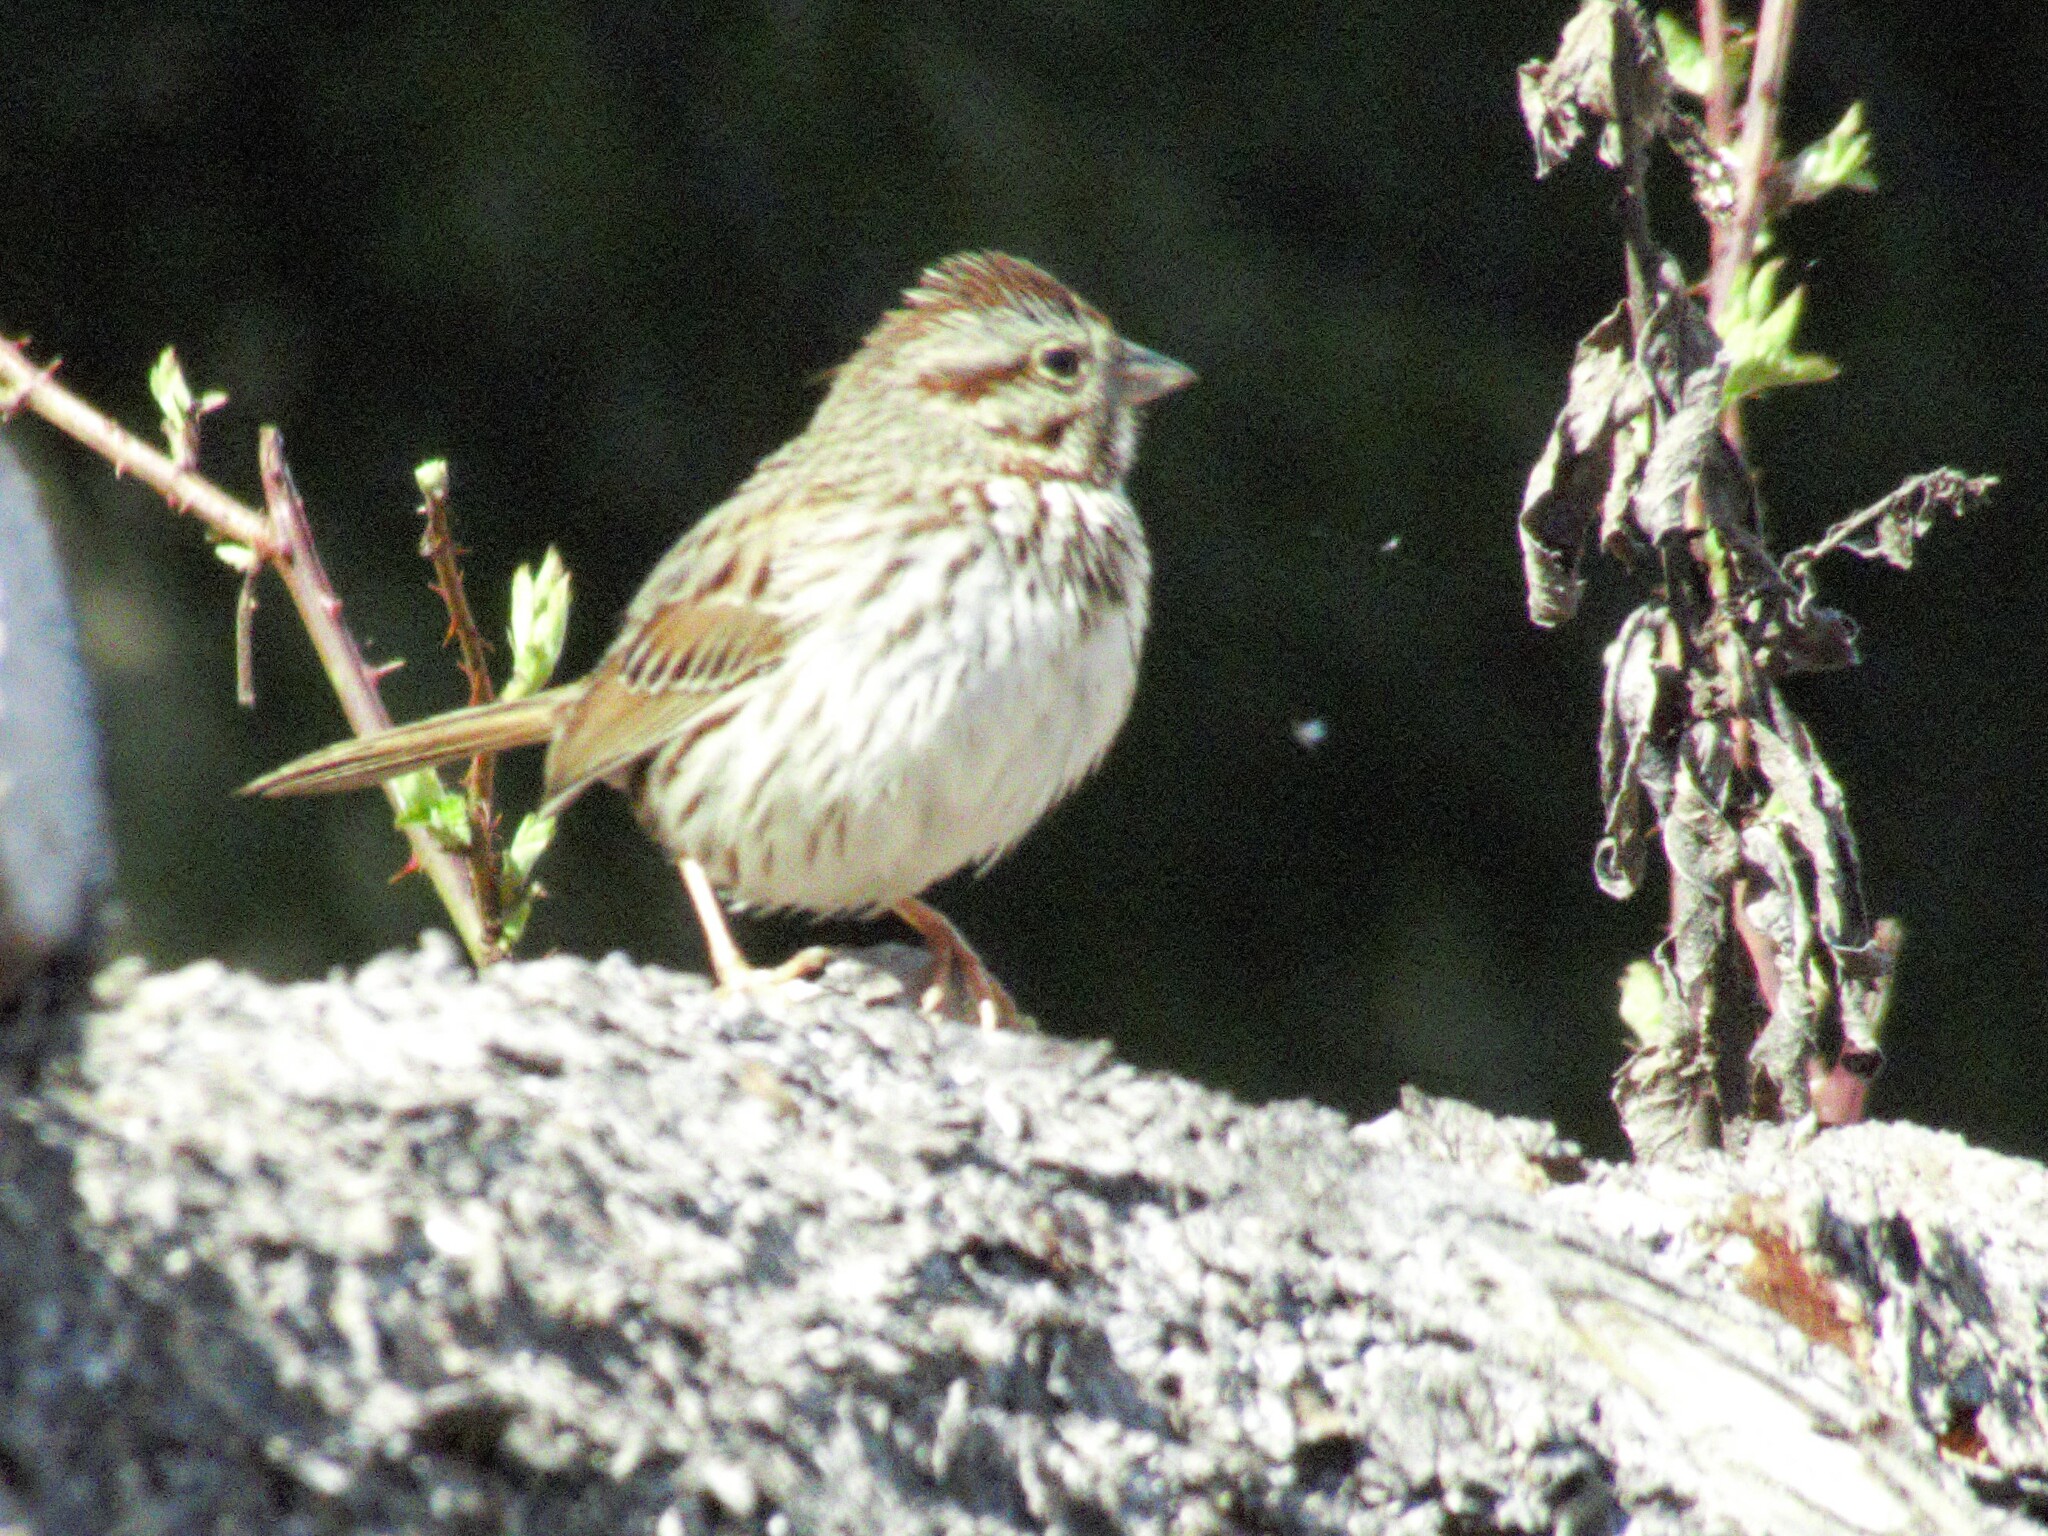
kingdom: Animalia
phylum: Chordata
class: Aves
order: Passeriformes
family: Passerellidae
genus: Melospiza
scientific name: Melospiza melodia
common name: Song sparrow
